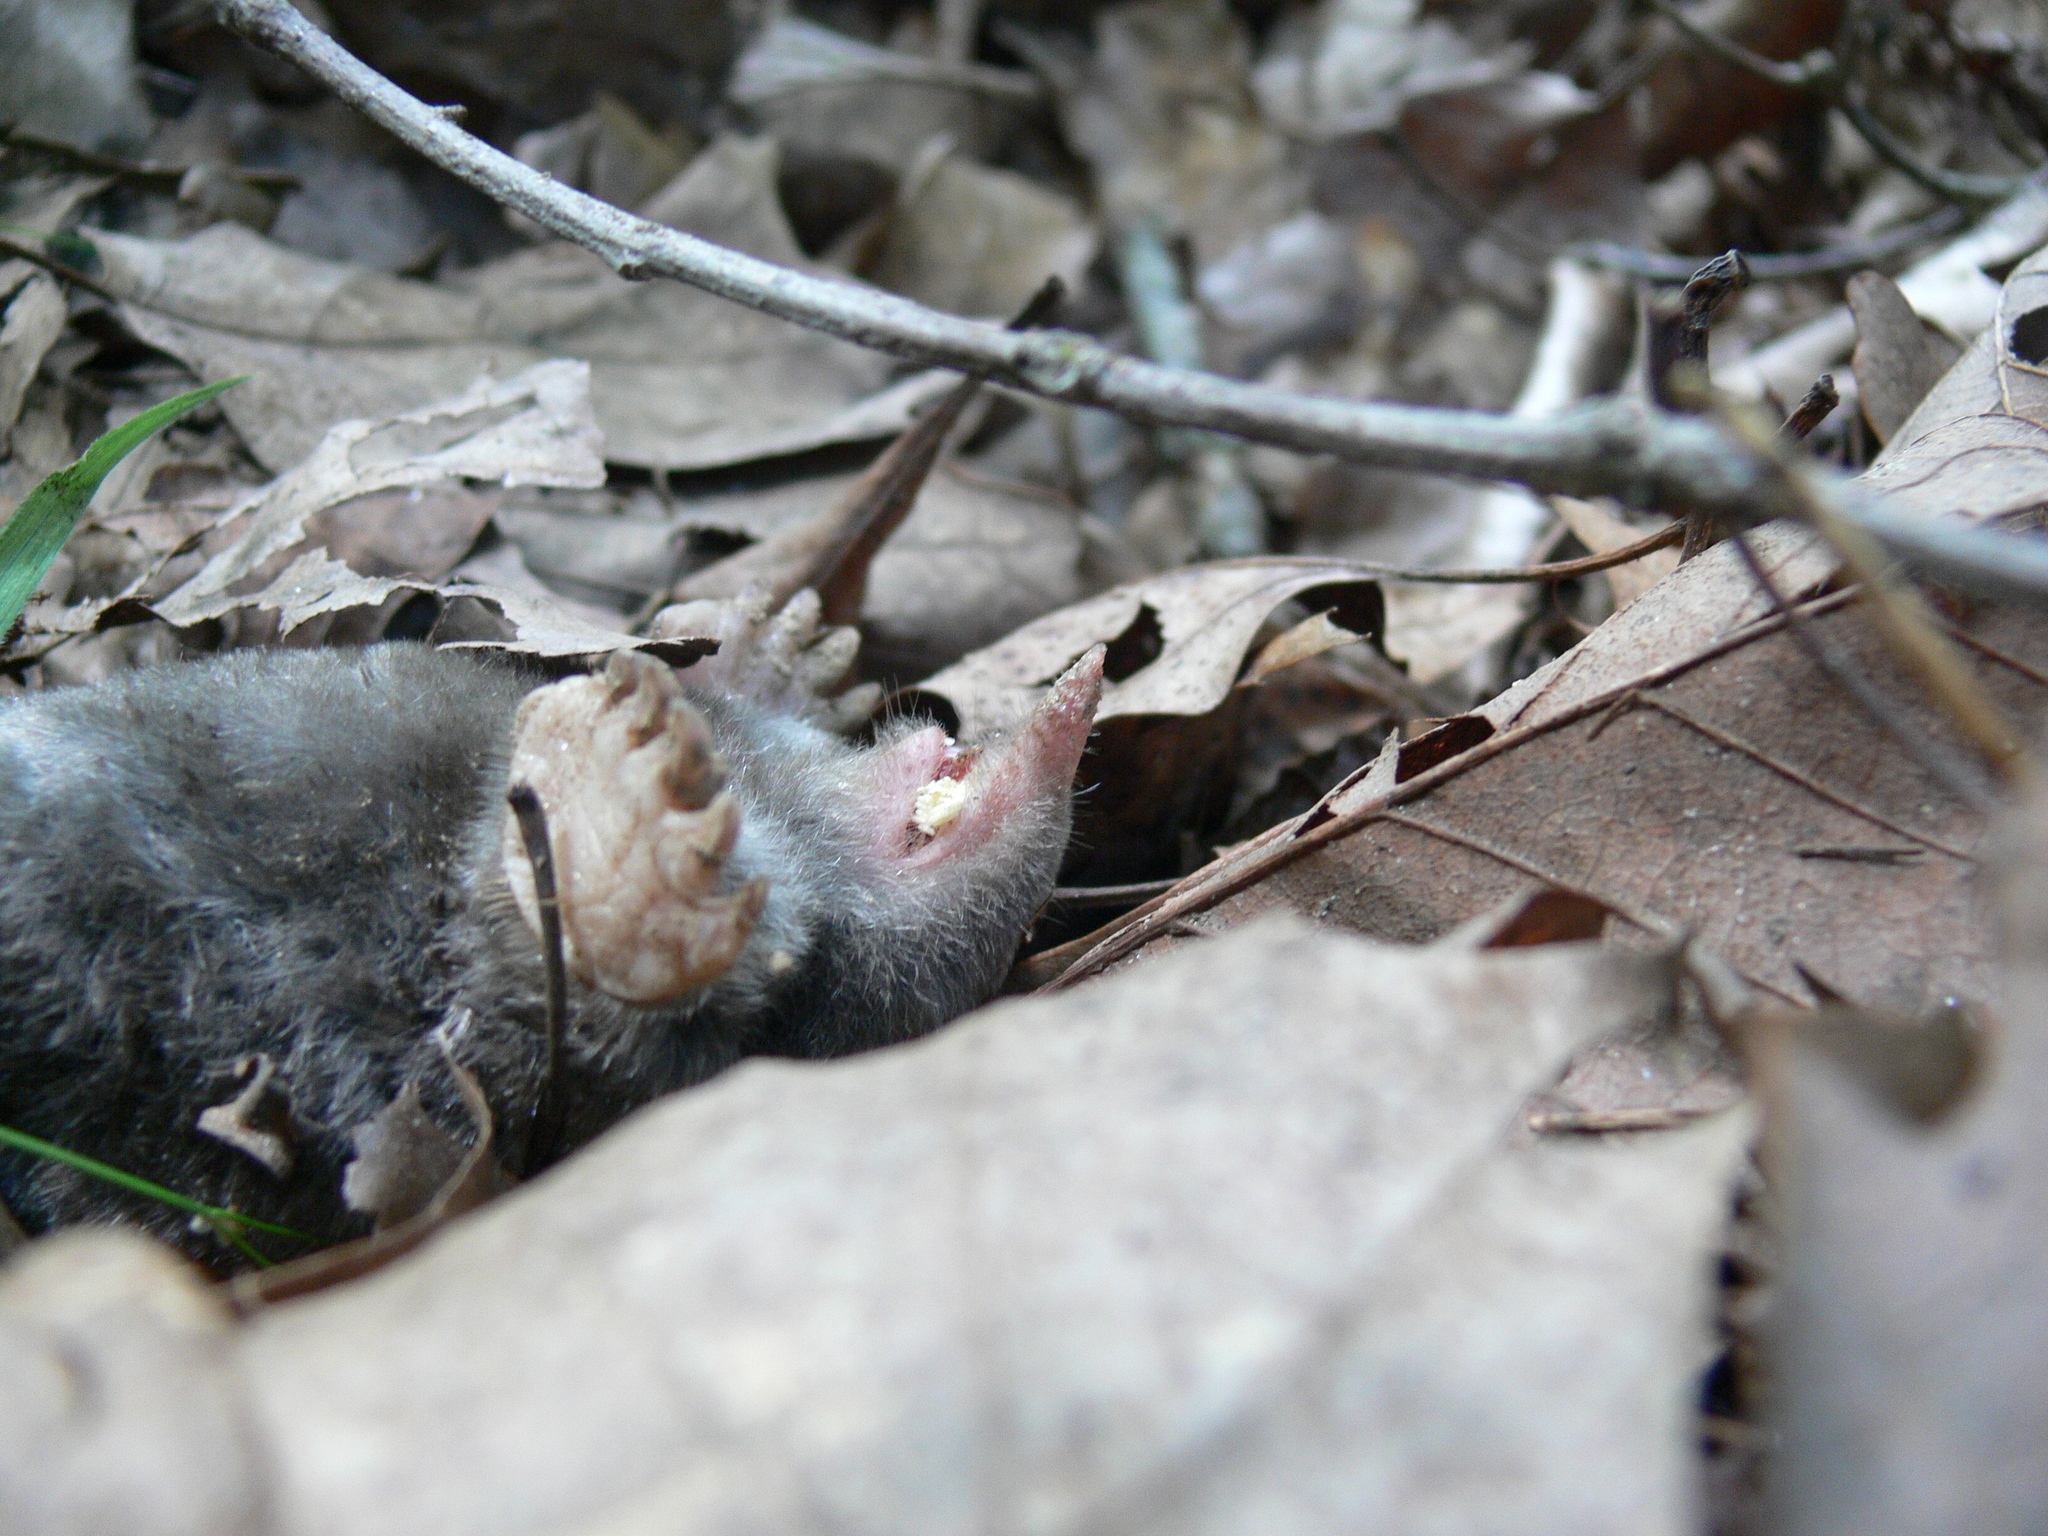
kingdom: Animalia
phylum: Chordata
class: Mammalia
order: Soricomorpha
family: Talpidae
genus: Scalopus
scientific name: Scalopus aquaticus
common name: Eastern mole
